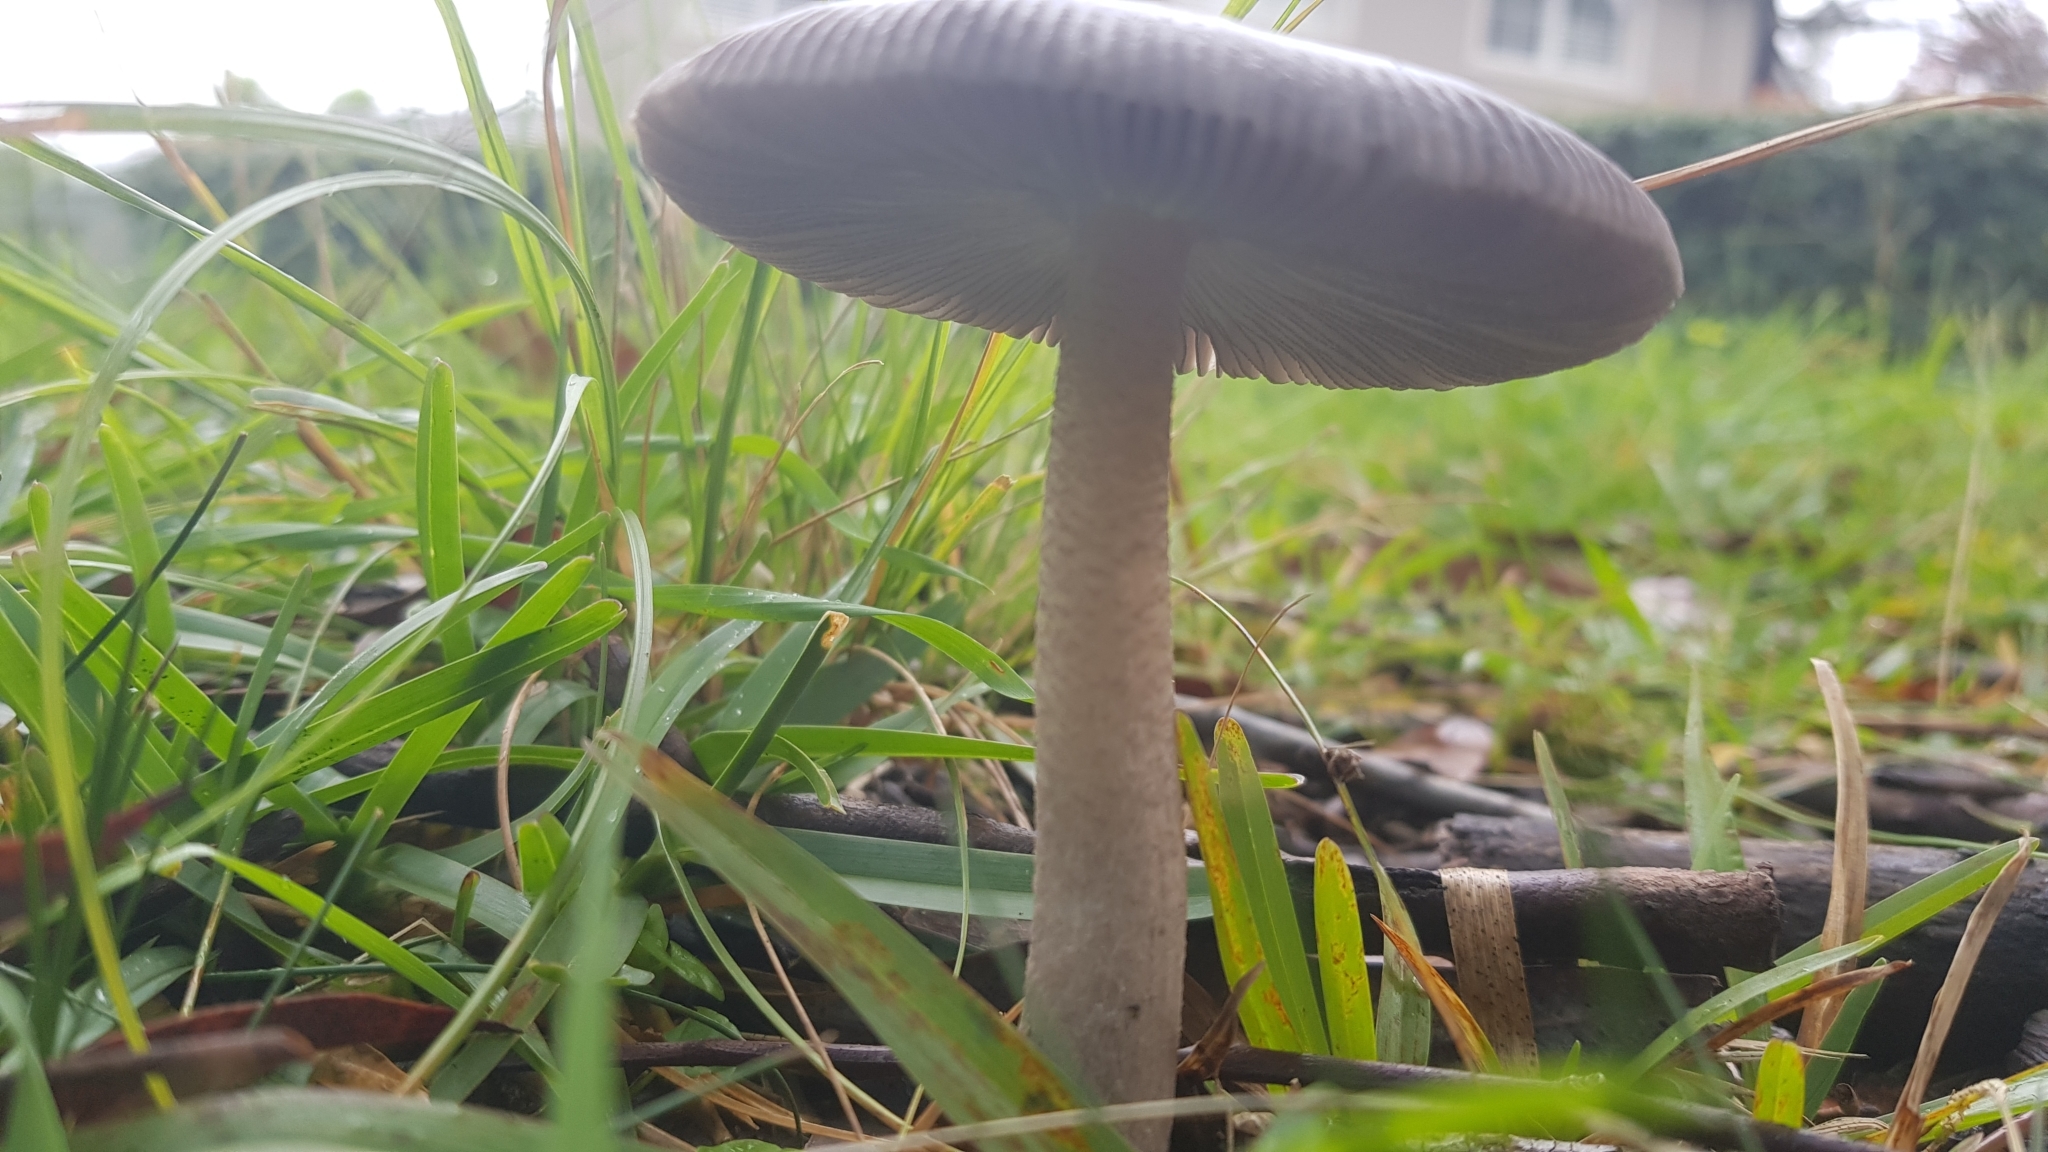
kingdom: Fungi
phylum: Basidiomycota
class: Agaricomycetes
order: Agaricales
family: Amanitaceae
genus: Amanita
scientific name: Amanita cheelii
